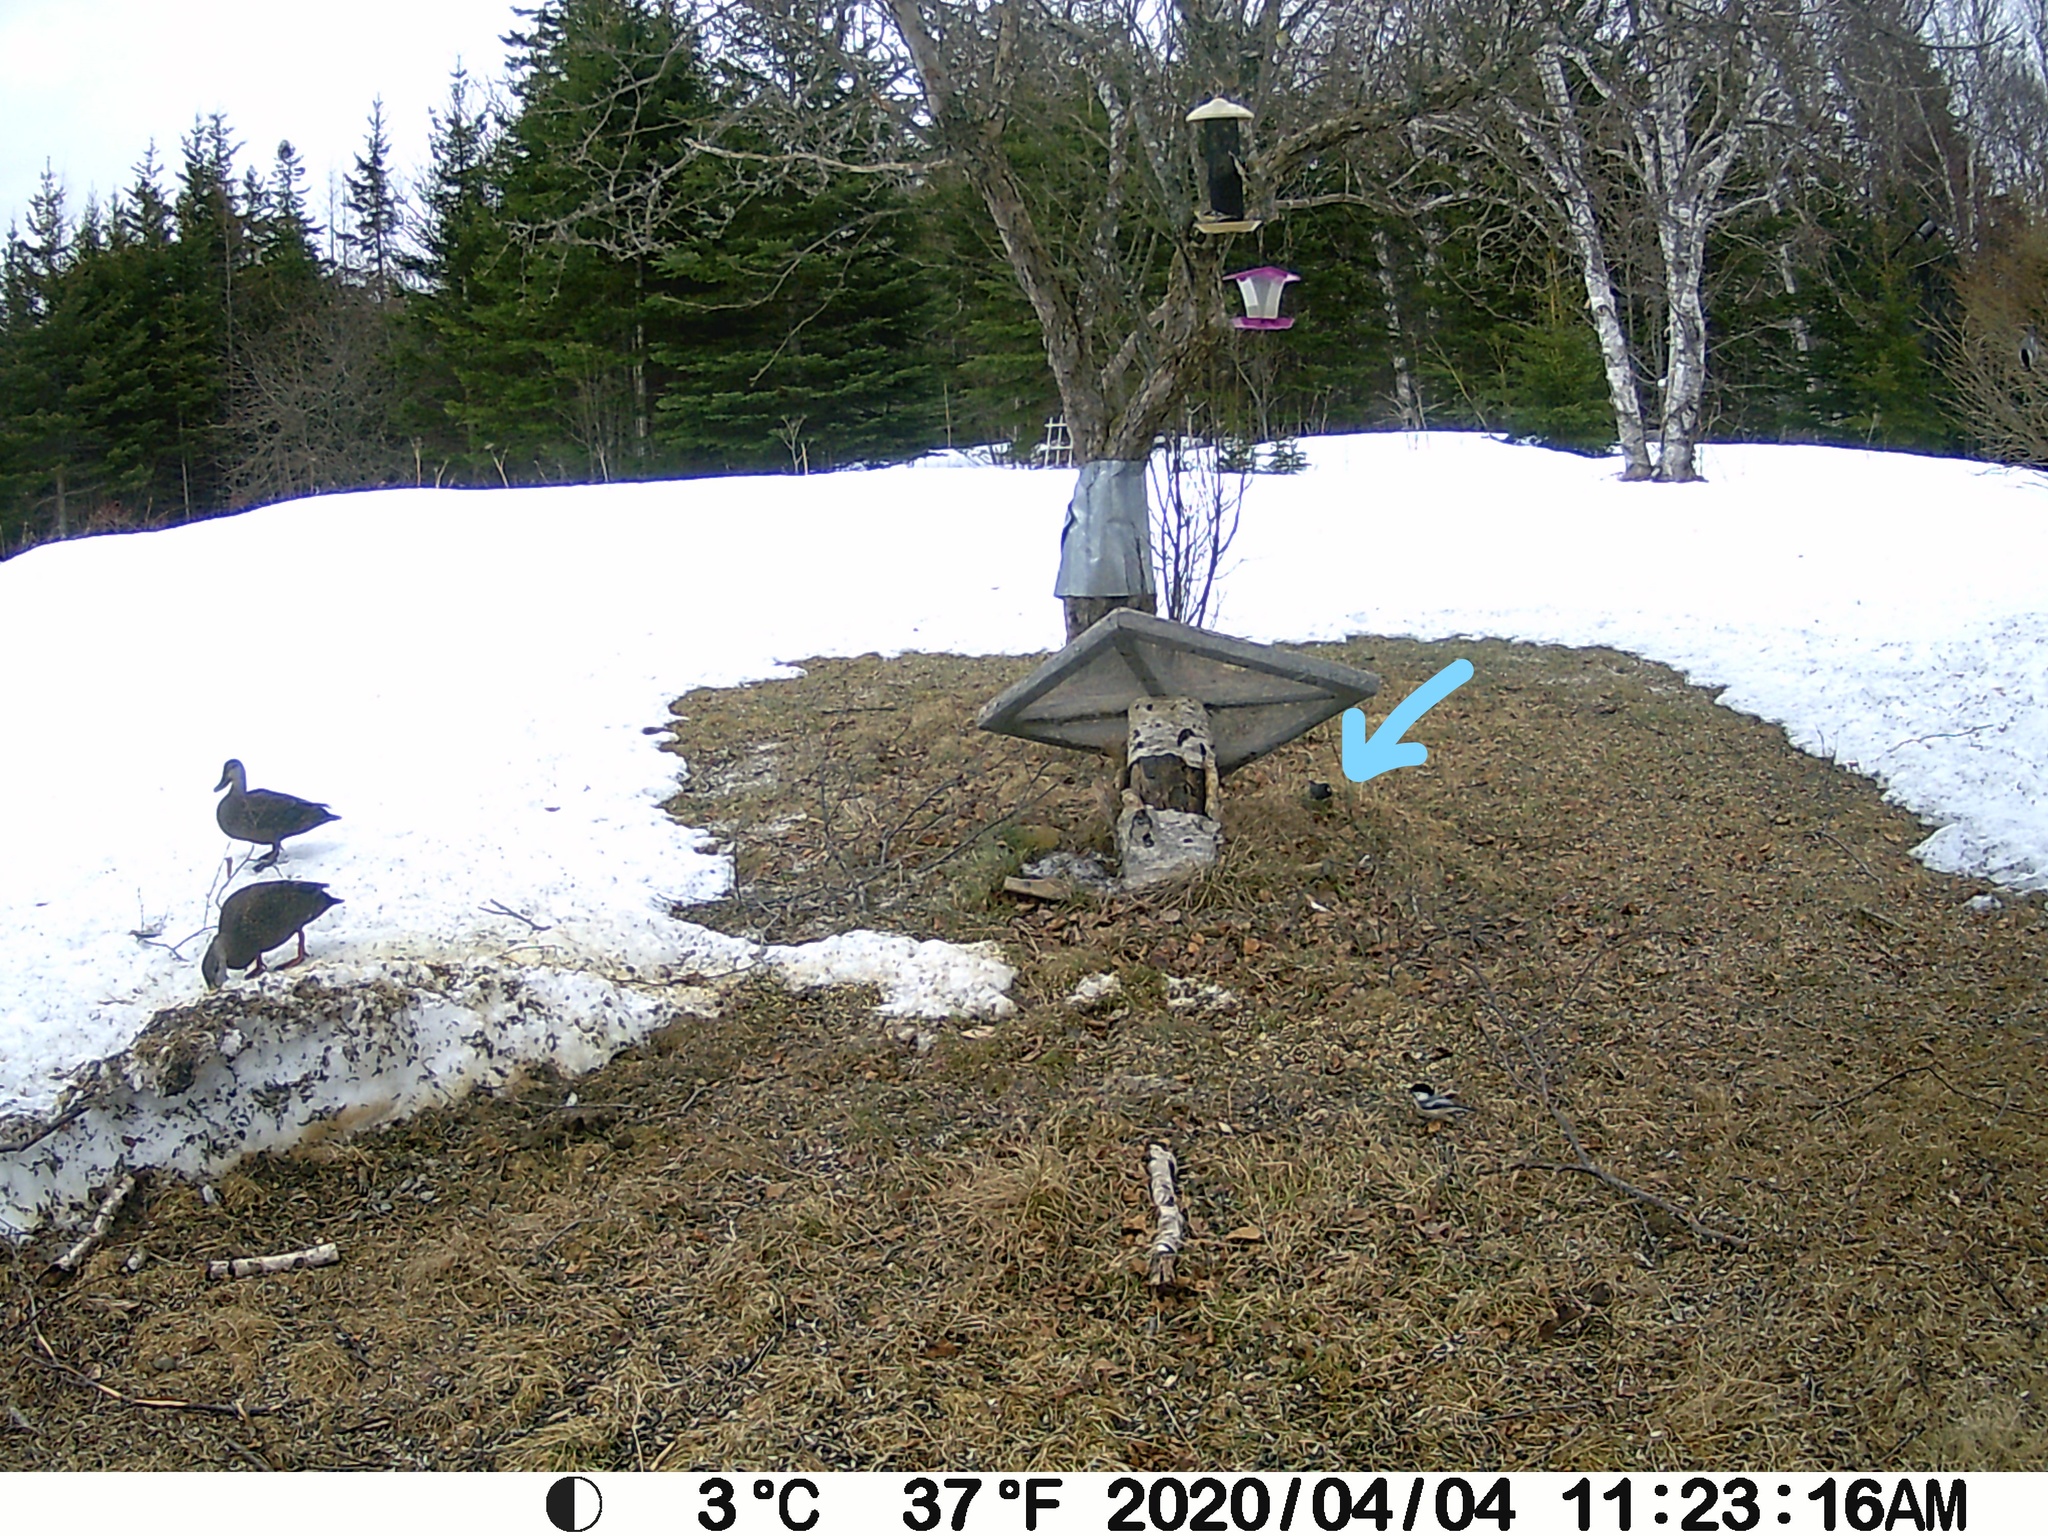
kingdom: Animalia
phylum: Chordata
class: Aves
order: Passeriformes
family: Passerellidae
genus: Junco
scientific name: Junco hyemalis
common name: Dark-eyed junco
